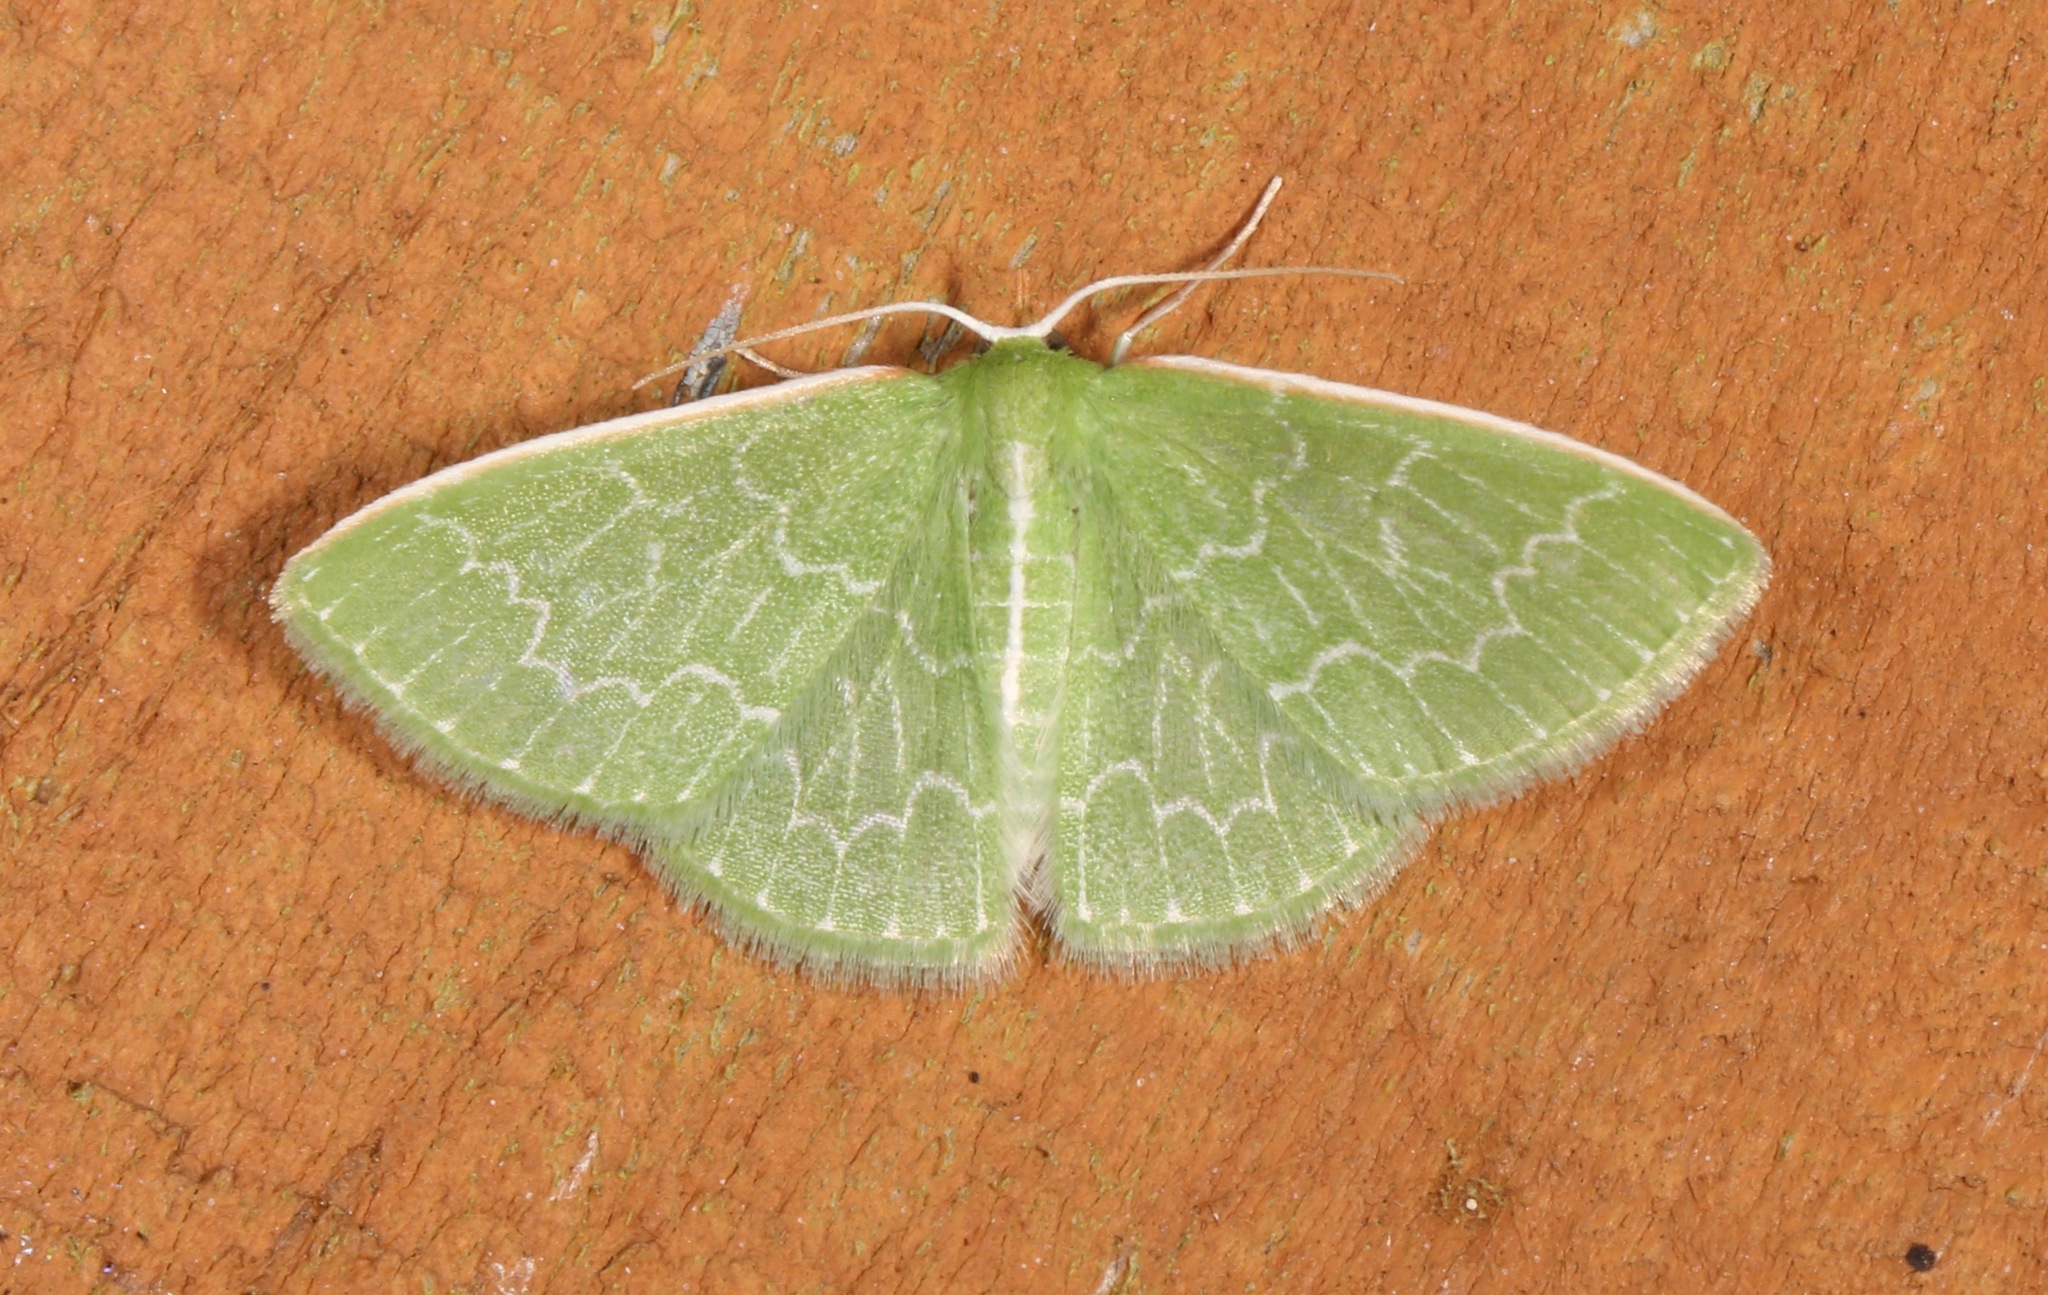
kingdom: Animalia
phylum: Arthropoda
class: Insecta
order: Lepidoptera
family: Geometridae
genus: Synchlora
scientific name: Synchlora frondaria
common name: Southern emerald
